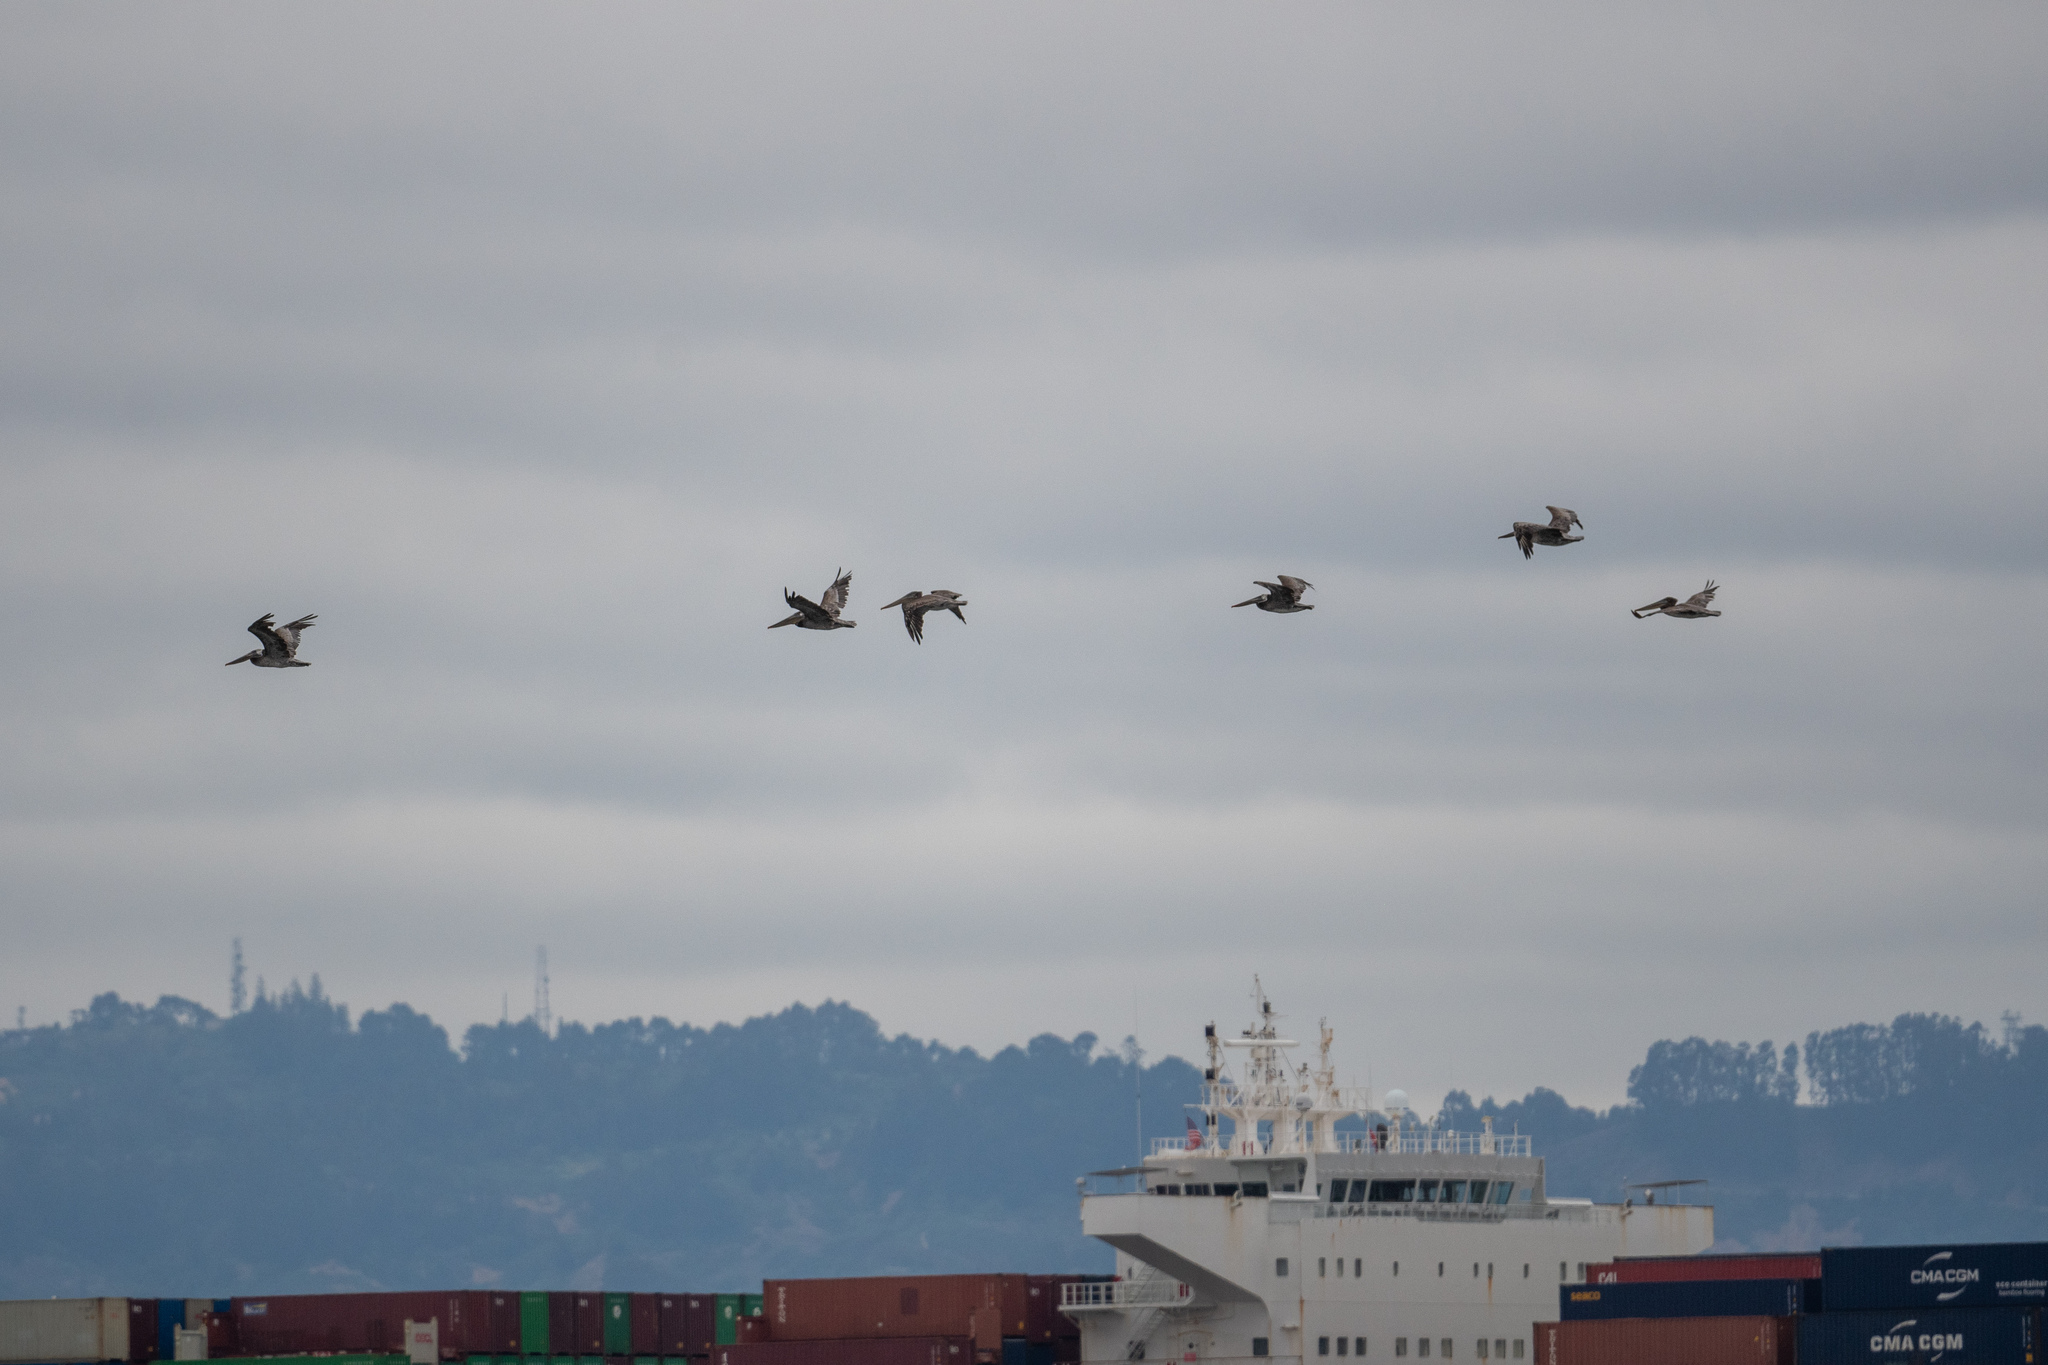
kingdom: Animalia
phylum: Chordata
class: Aves
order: Pelecaniformes
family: Pelecanidae
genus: Pelecanus
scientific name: Pelecanus occidentalis
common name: Brown pelican
